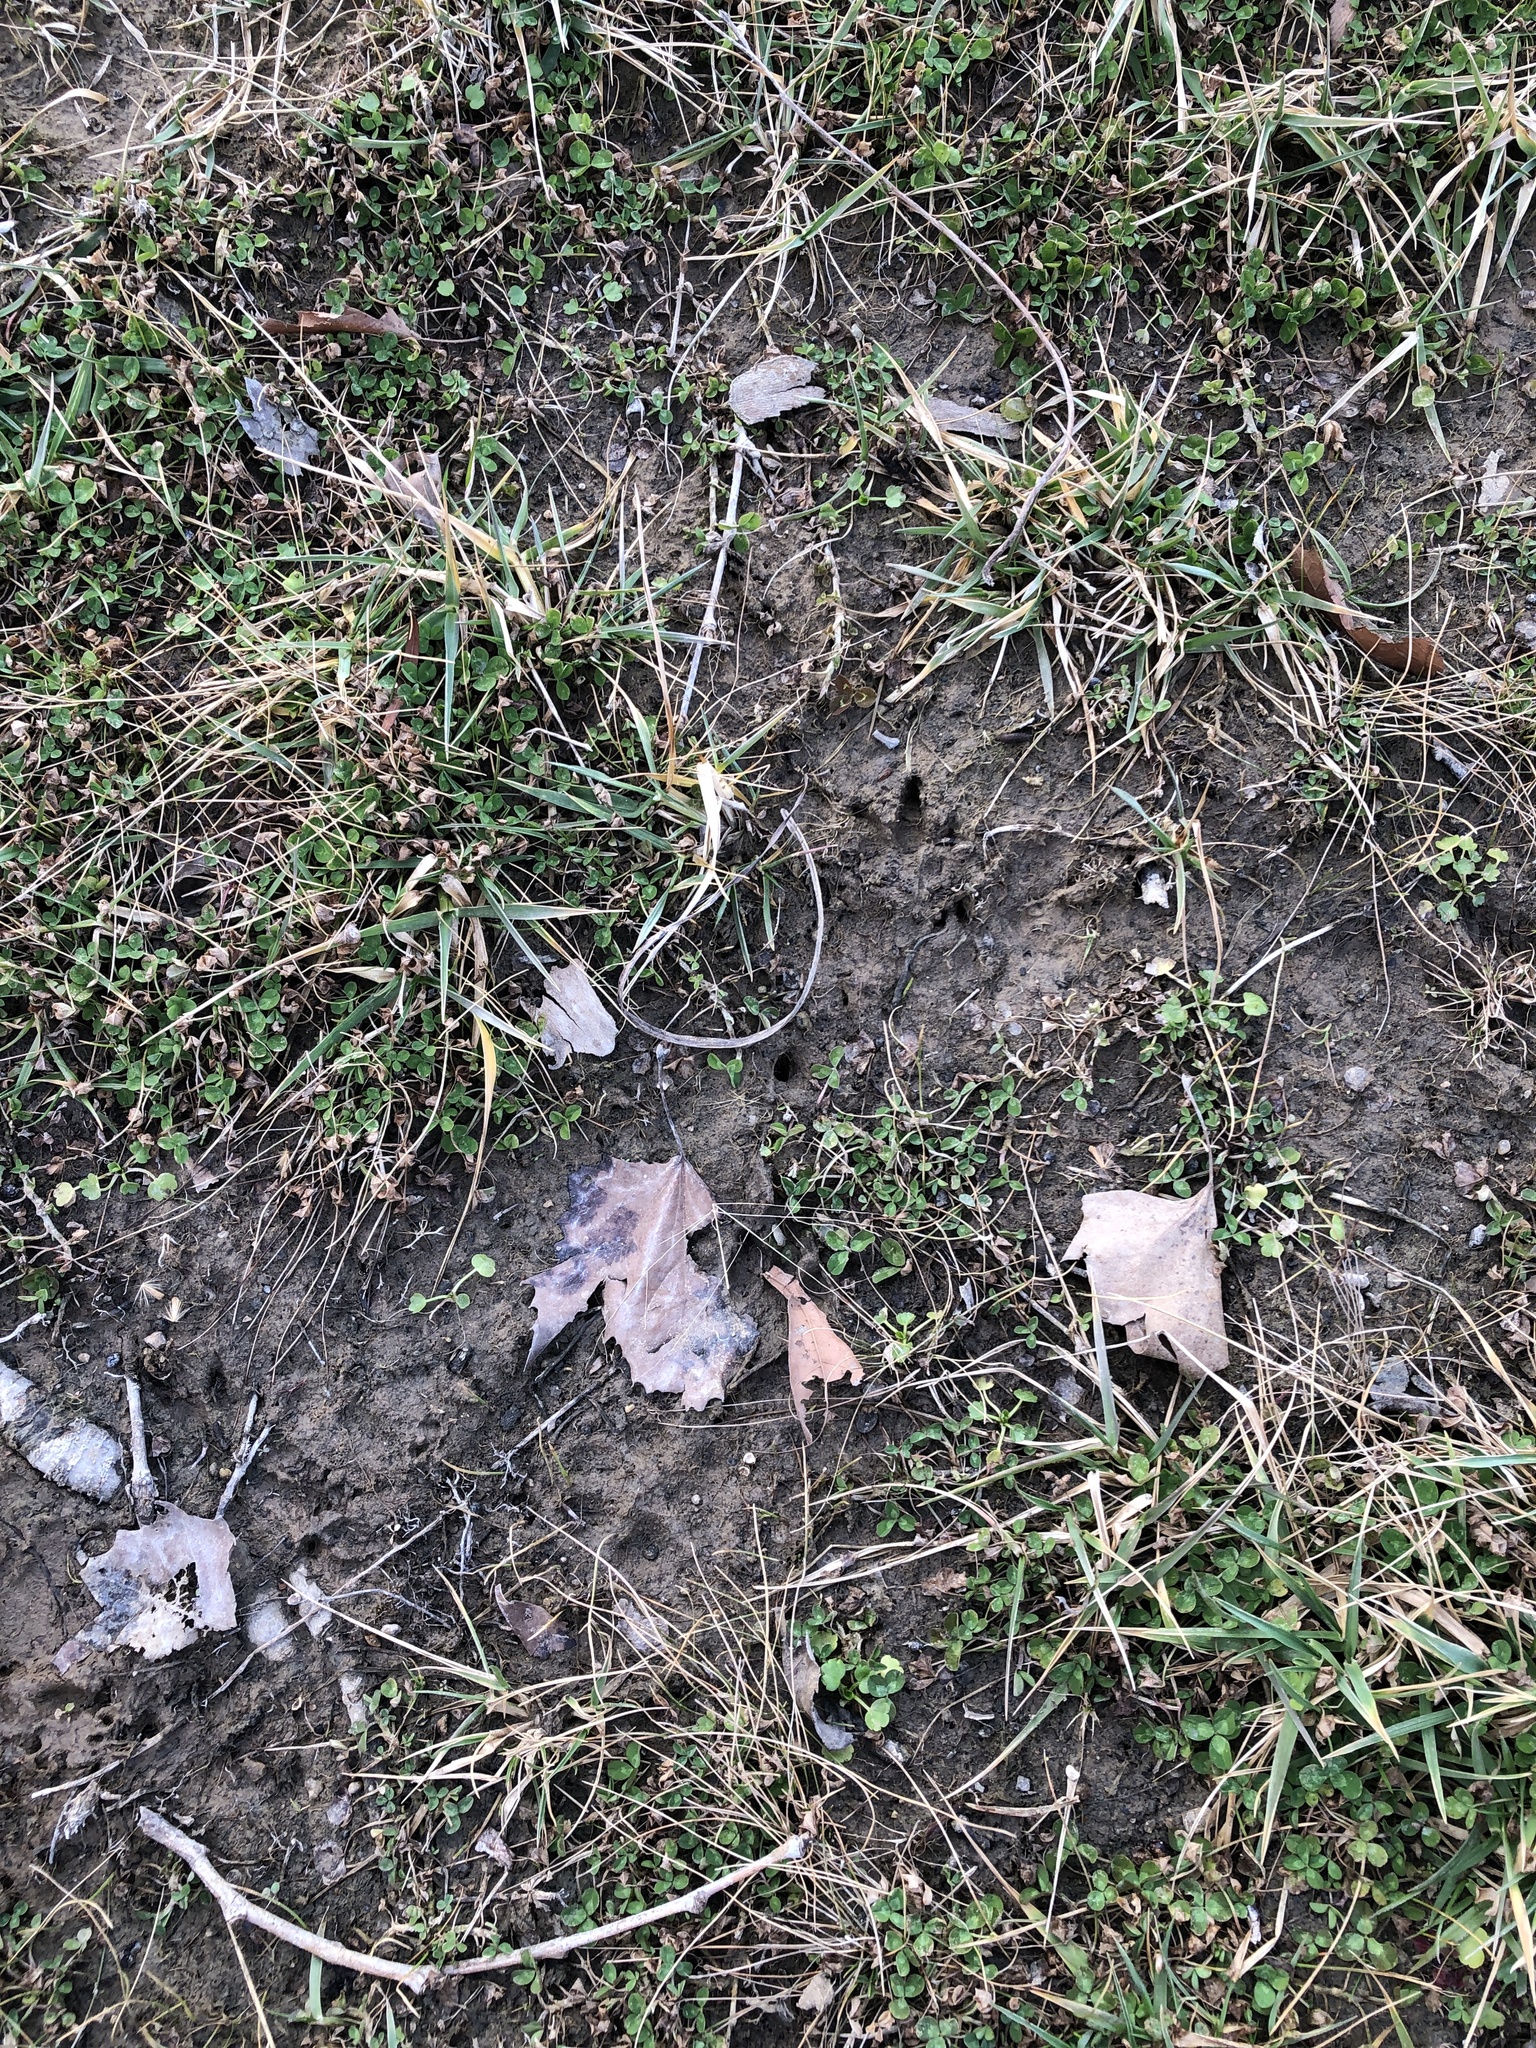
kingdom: Animalia
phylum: Chordata
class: Mammalia
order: Cingulata
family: Dasypodidae
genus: Dasypus
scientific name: Dasypus novemcinctus
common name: Nine-banded armadillo
